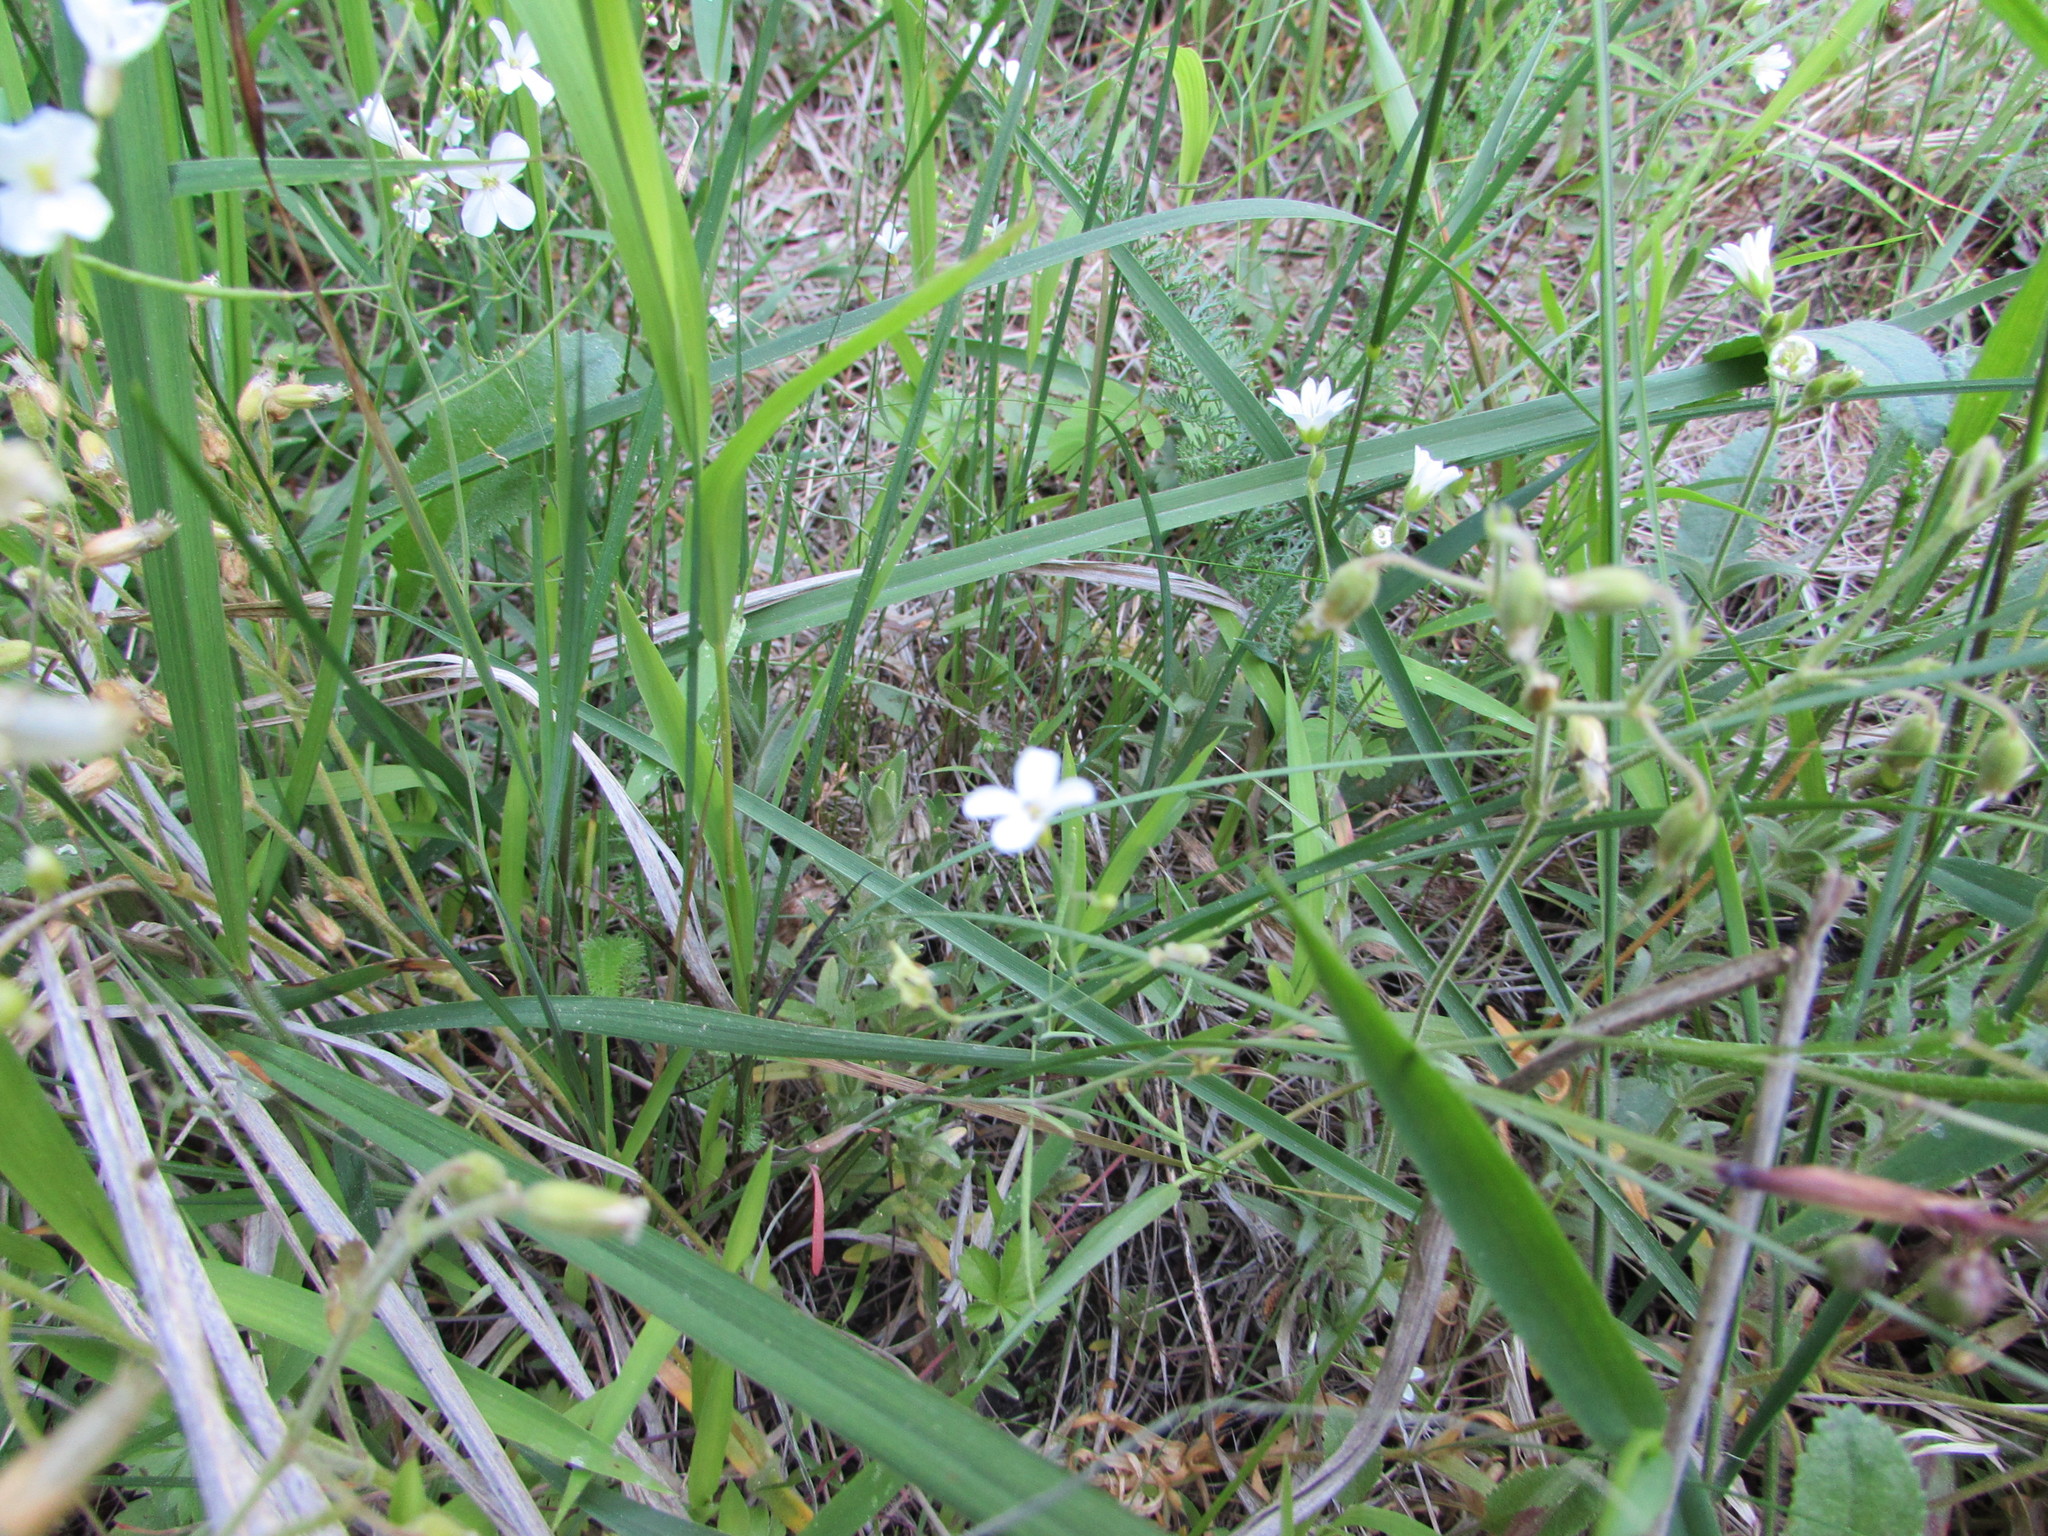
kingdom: Plantae
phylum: Tracheophyta
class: Magnoliopsida
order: Brassicales
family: Brassicaceae
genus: Arabidopsis
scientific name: Arabidopsis lyrata
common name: Lyrate rockcress
